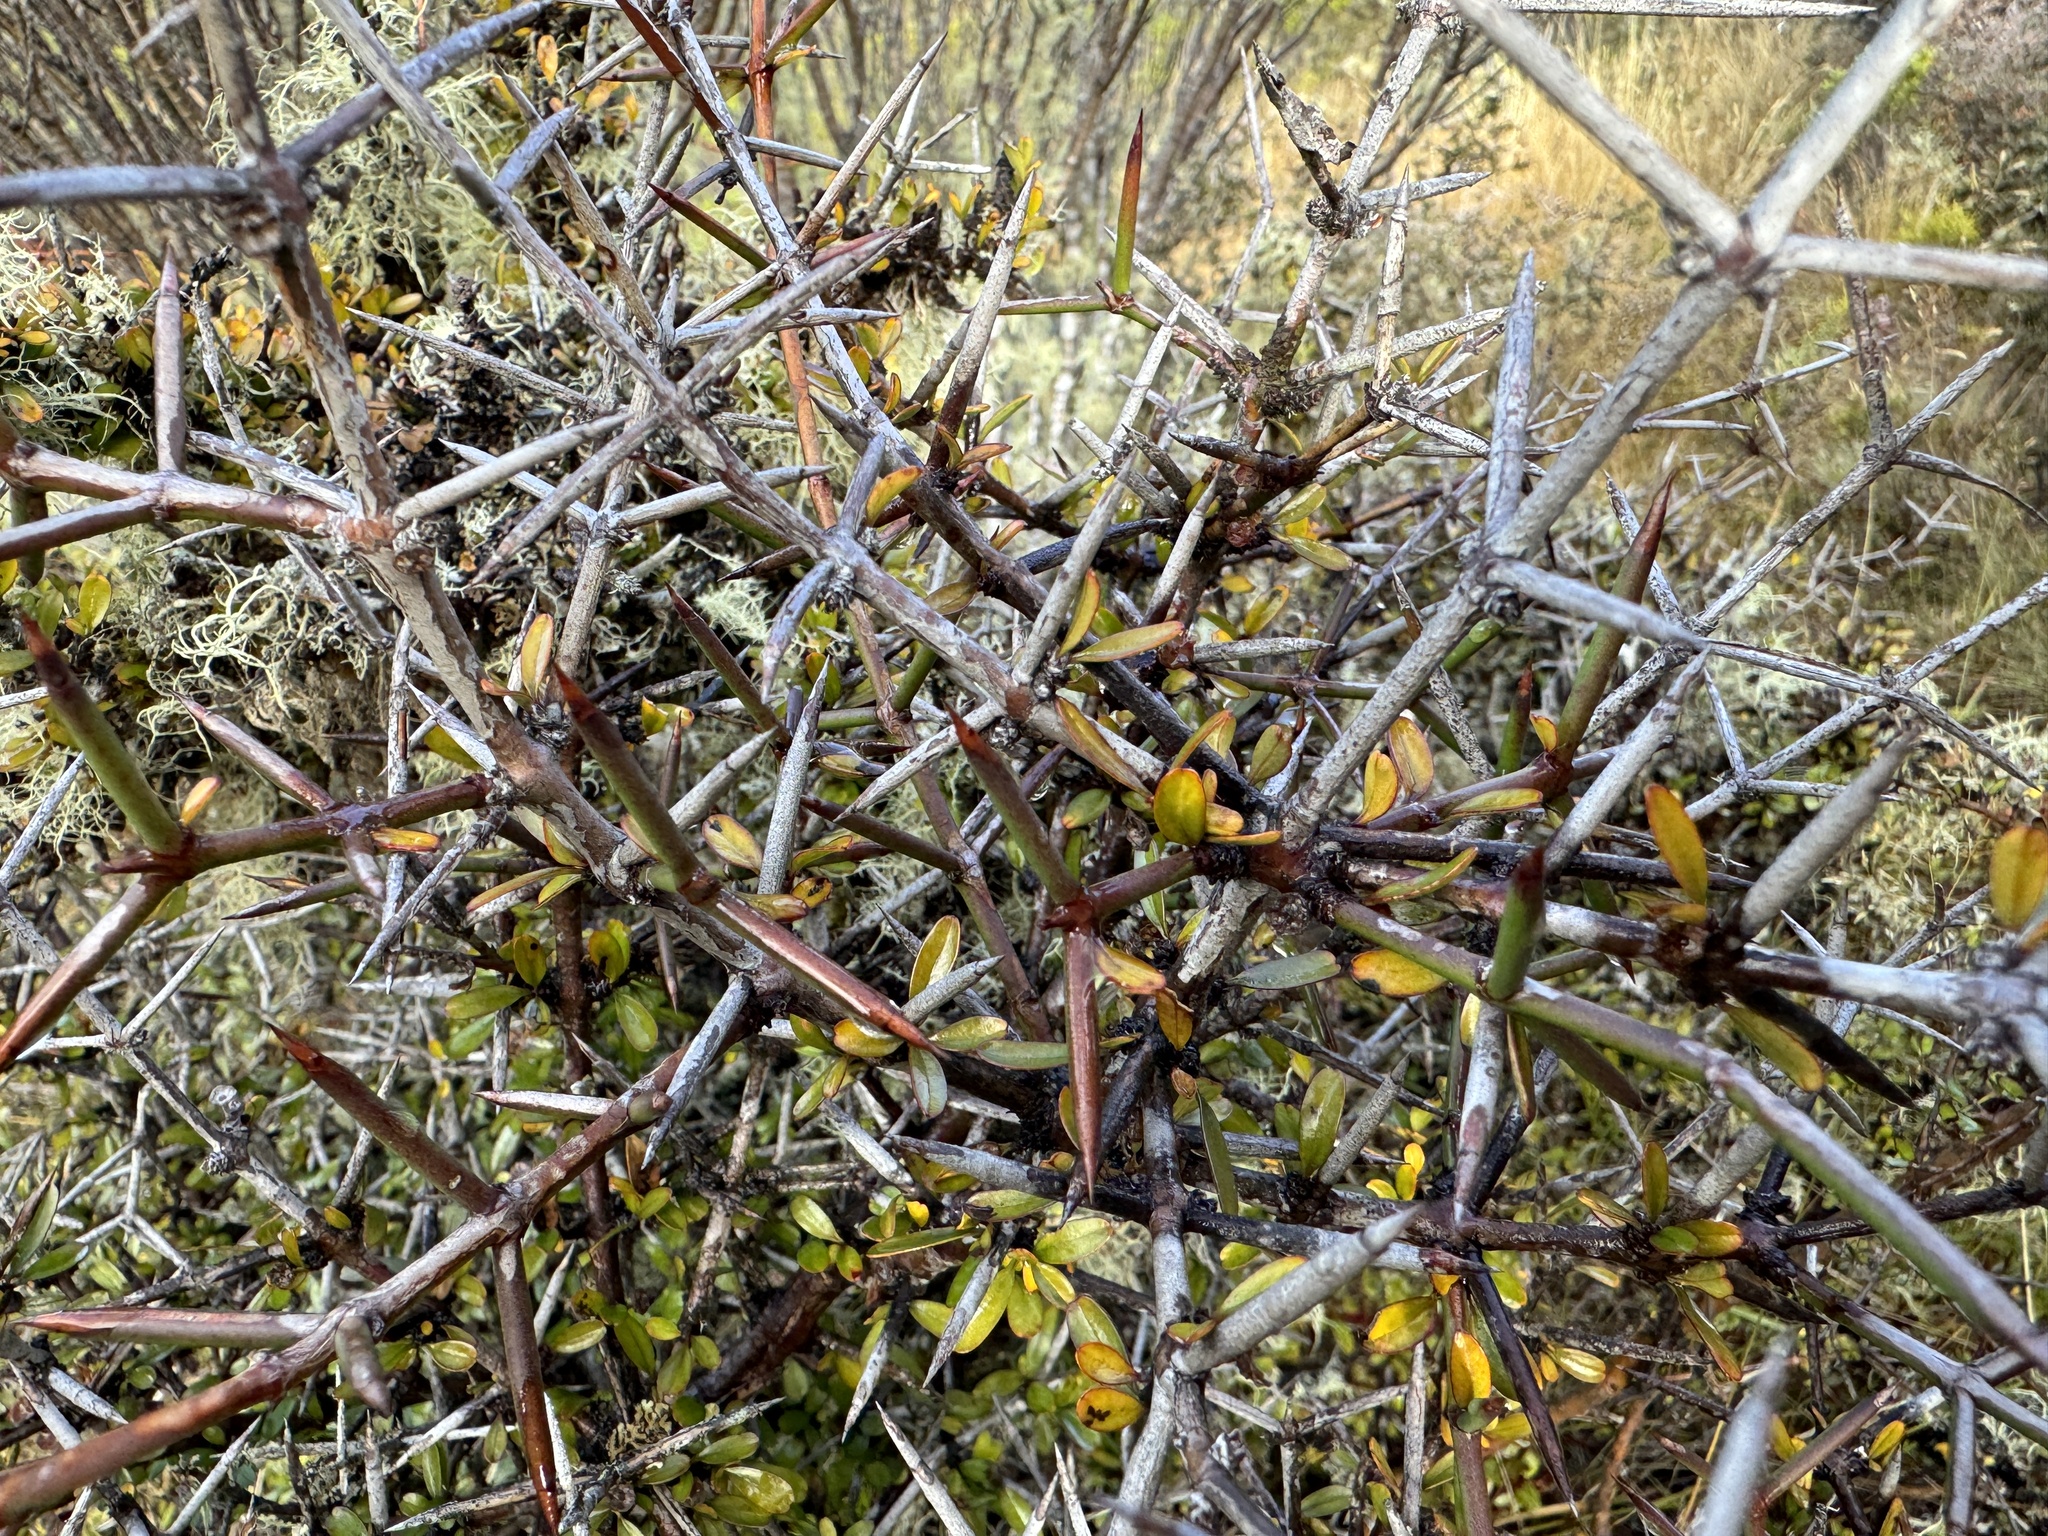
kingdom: Plantae
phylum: Tracheophyta
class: Magnoliopsida
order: Rosales
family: Rhamnaceae
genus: Discaria
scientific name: Discaria toumatou
